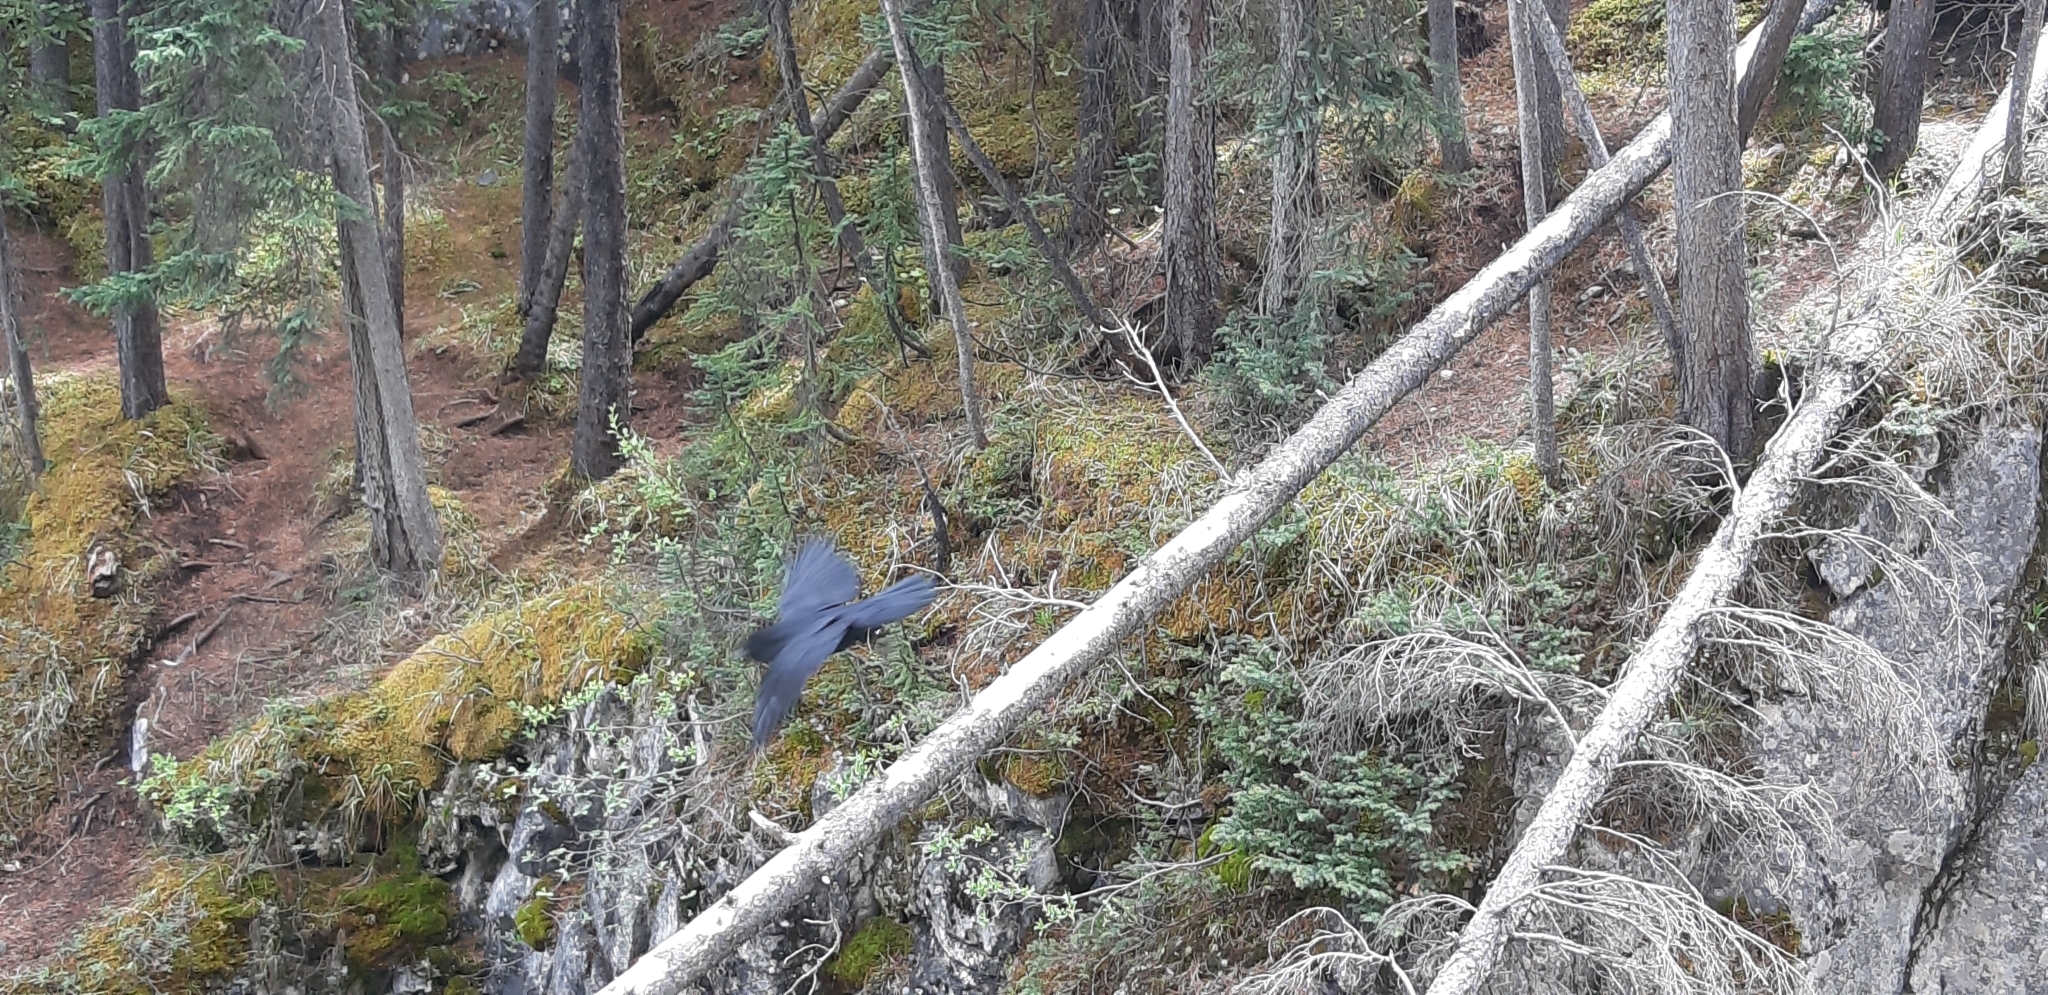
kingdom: Animalia
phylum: Chordata
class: Aves
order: Passeriformes
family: Corvidae
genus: Corvus
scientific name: Corvus corax
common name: Common raven
